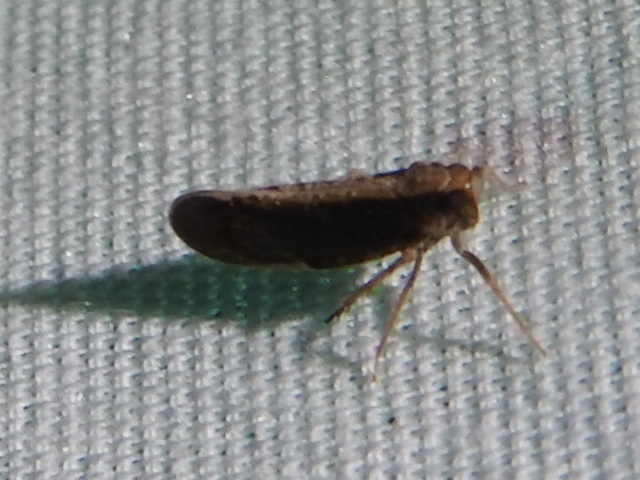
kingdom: Animalia
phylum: Arthropoda
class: Insecta
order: Hemiptera
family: Cixiidae
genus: Pintalia
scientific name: Pintalia delicata
